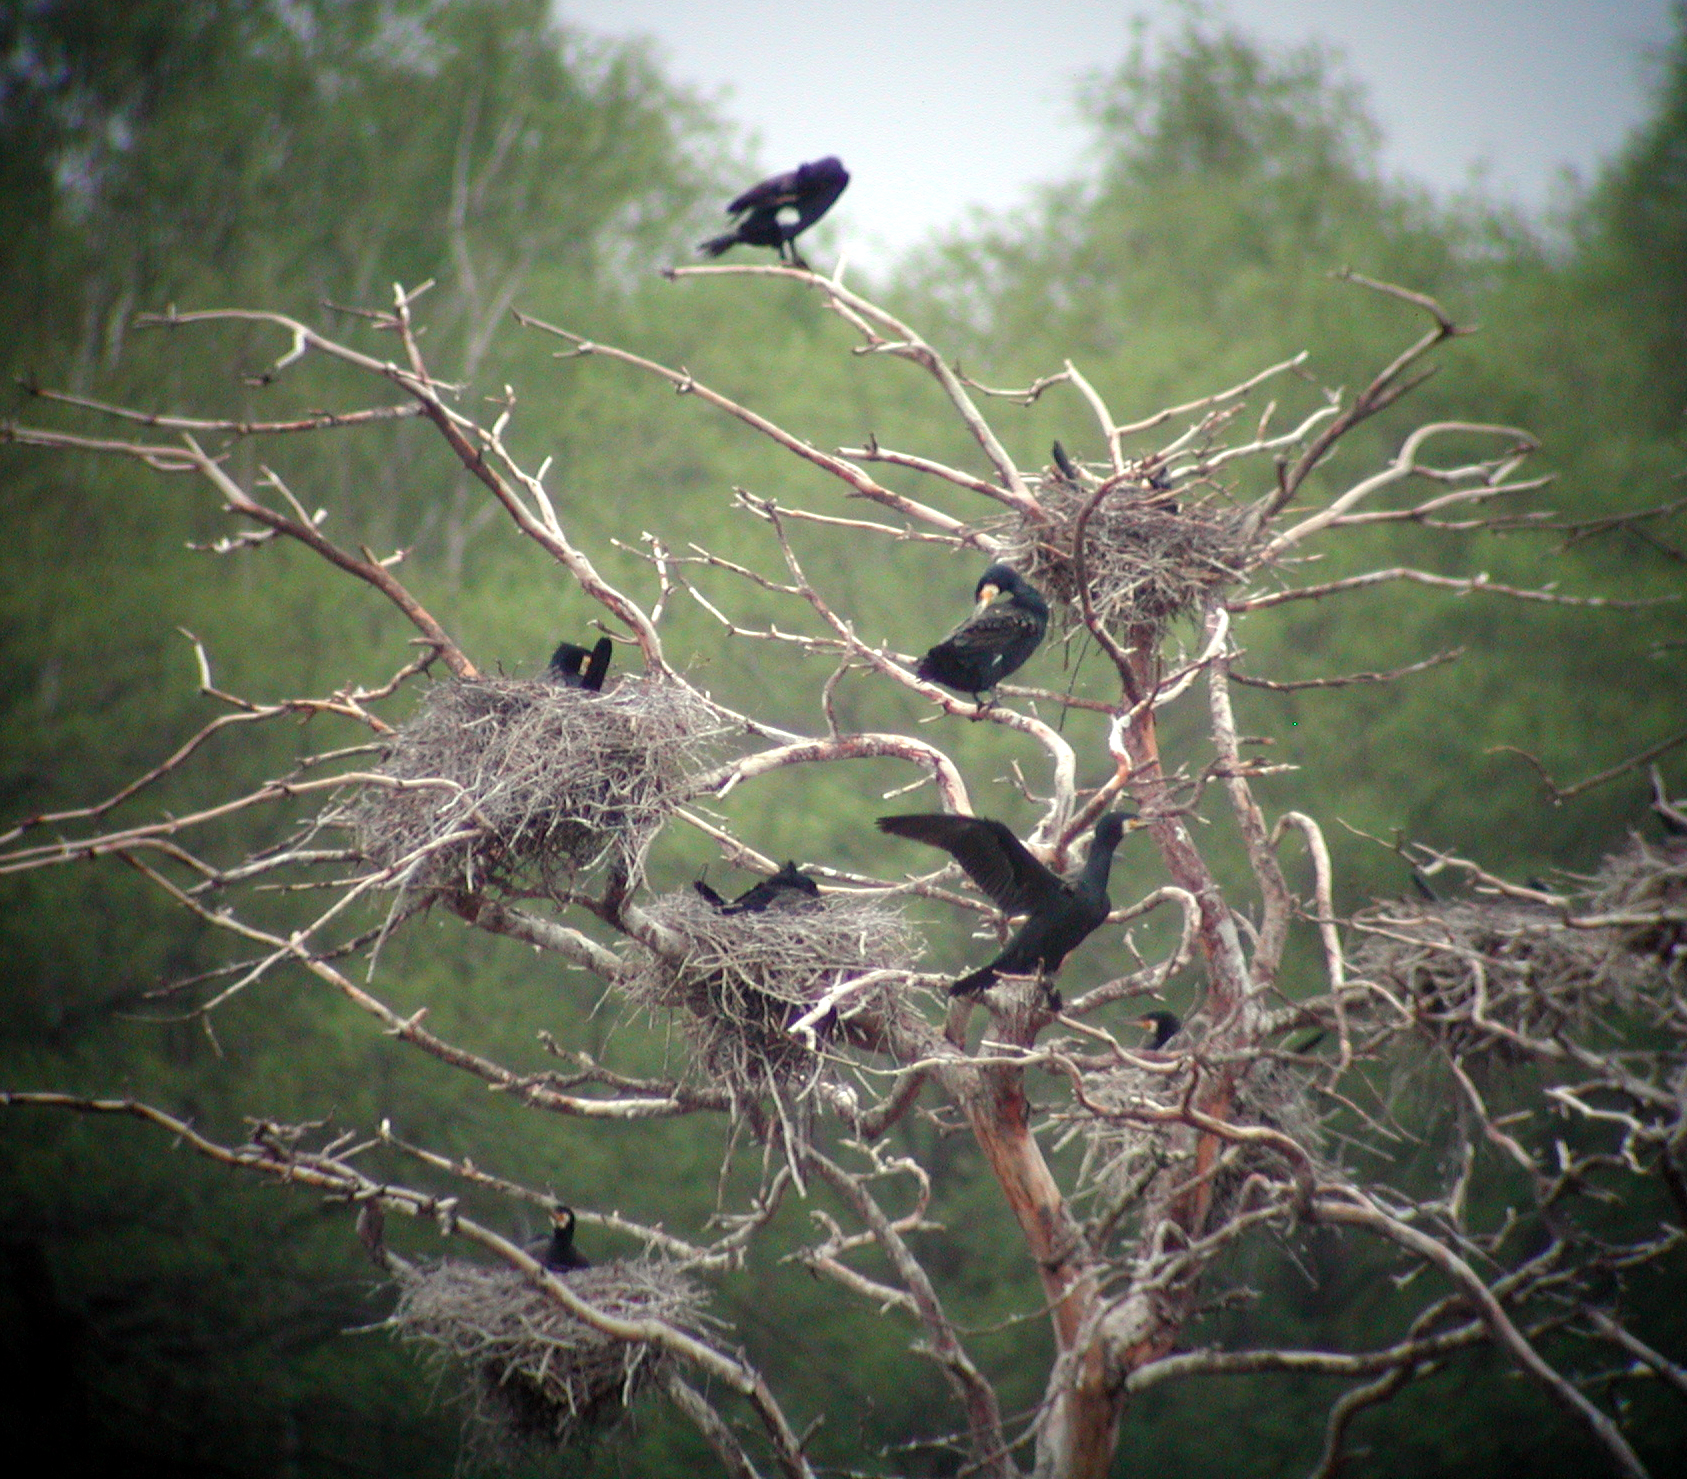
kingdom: Animalia
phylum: Chordata
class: Aves
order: Suliformes
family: Phalacrocoracidae
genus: Phalacrocorax
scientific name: Phalacrocorax carbo
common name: Great cormorant
